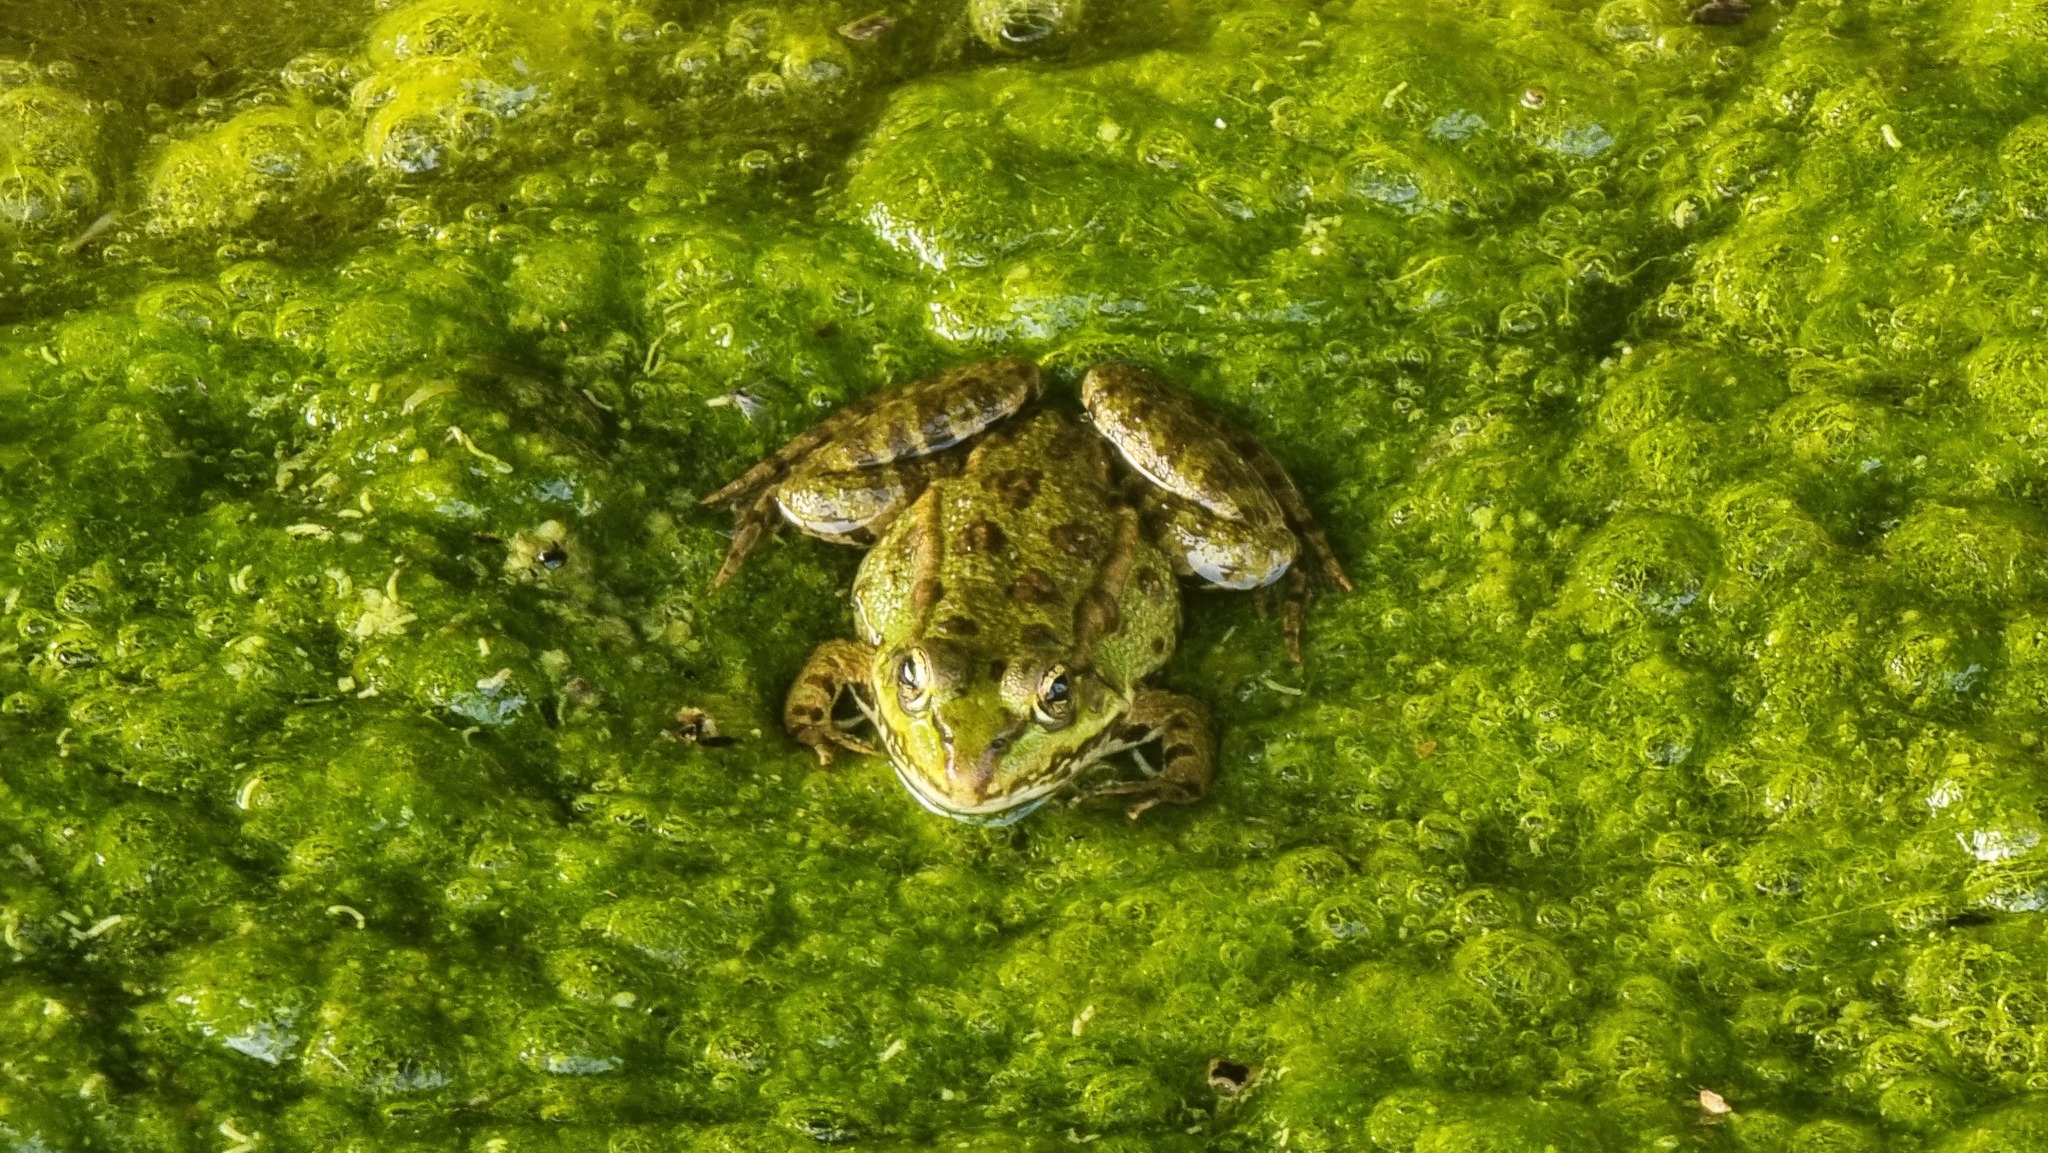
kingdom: Animalia
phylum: Chordata
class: Amphibia
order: Anura
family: Ranidae
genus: Pelophylax
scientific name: Pelophylax
